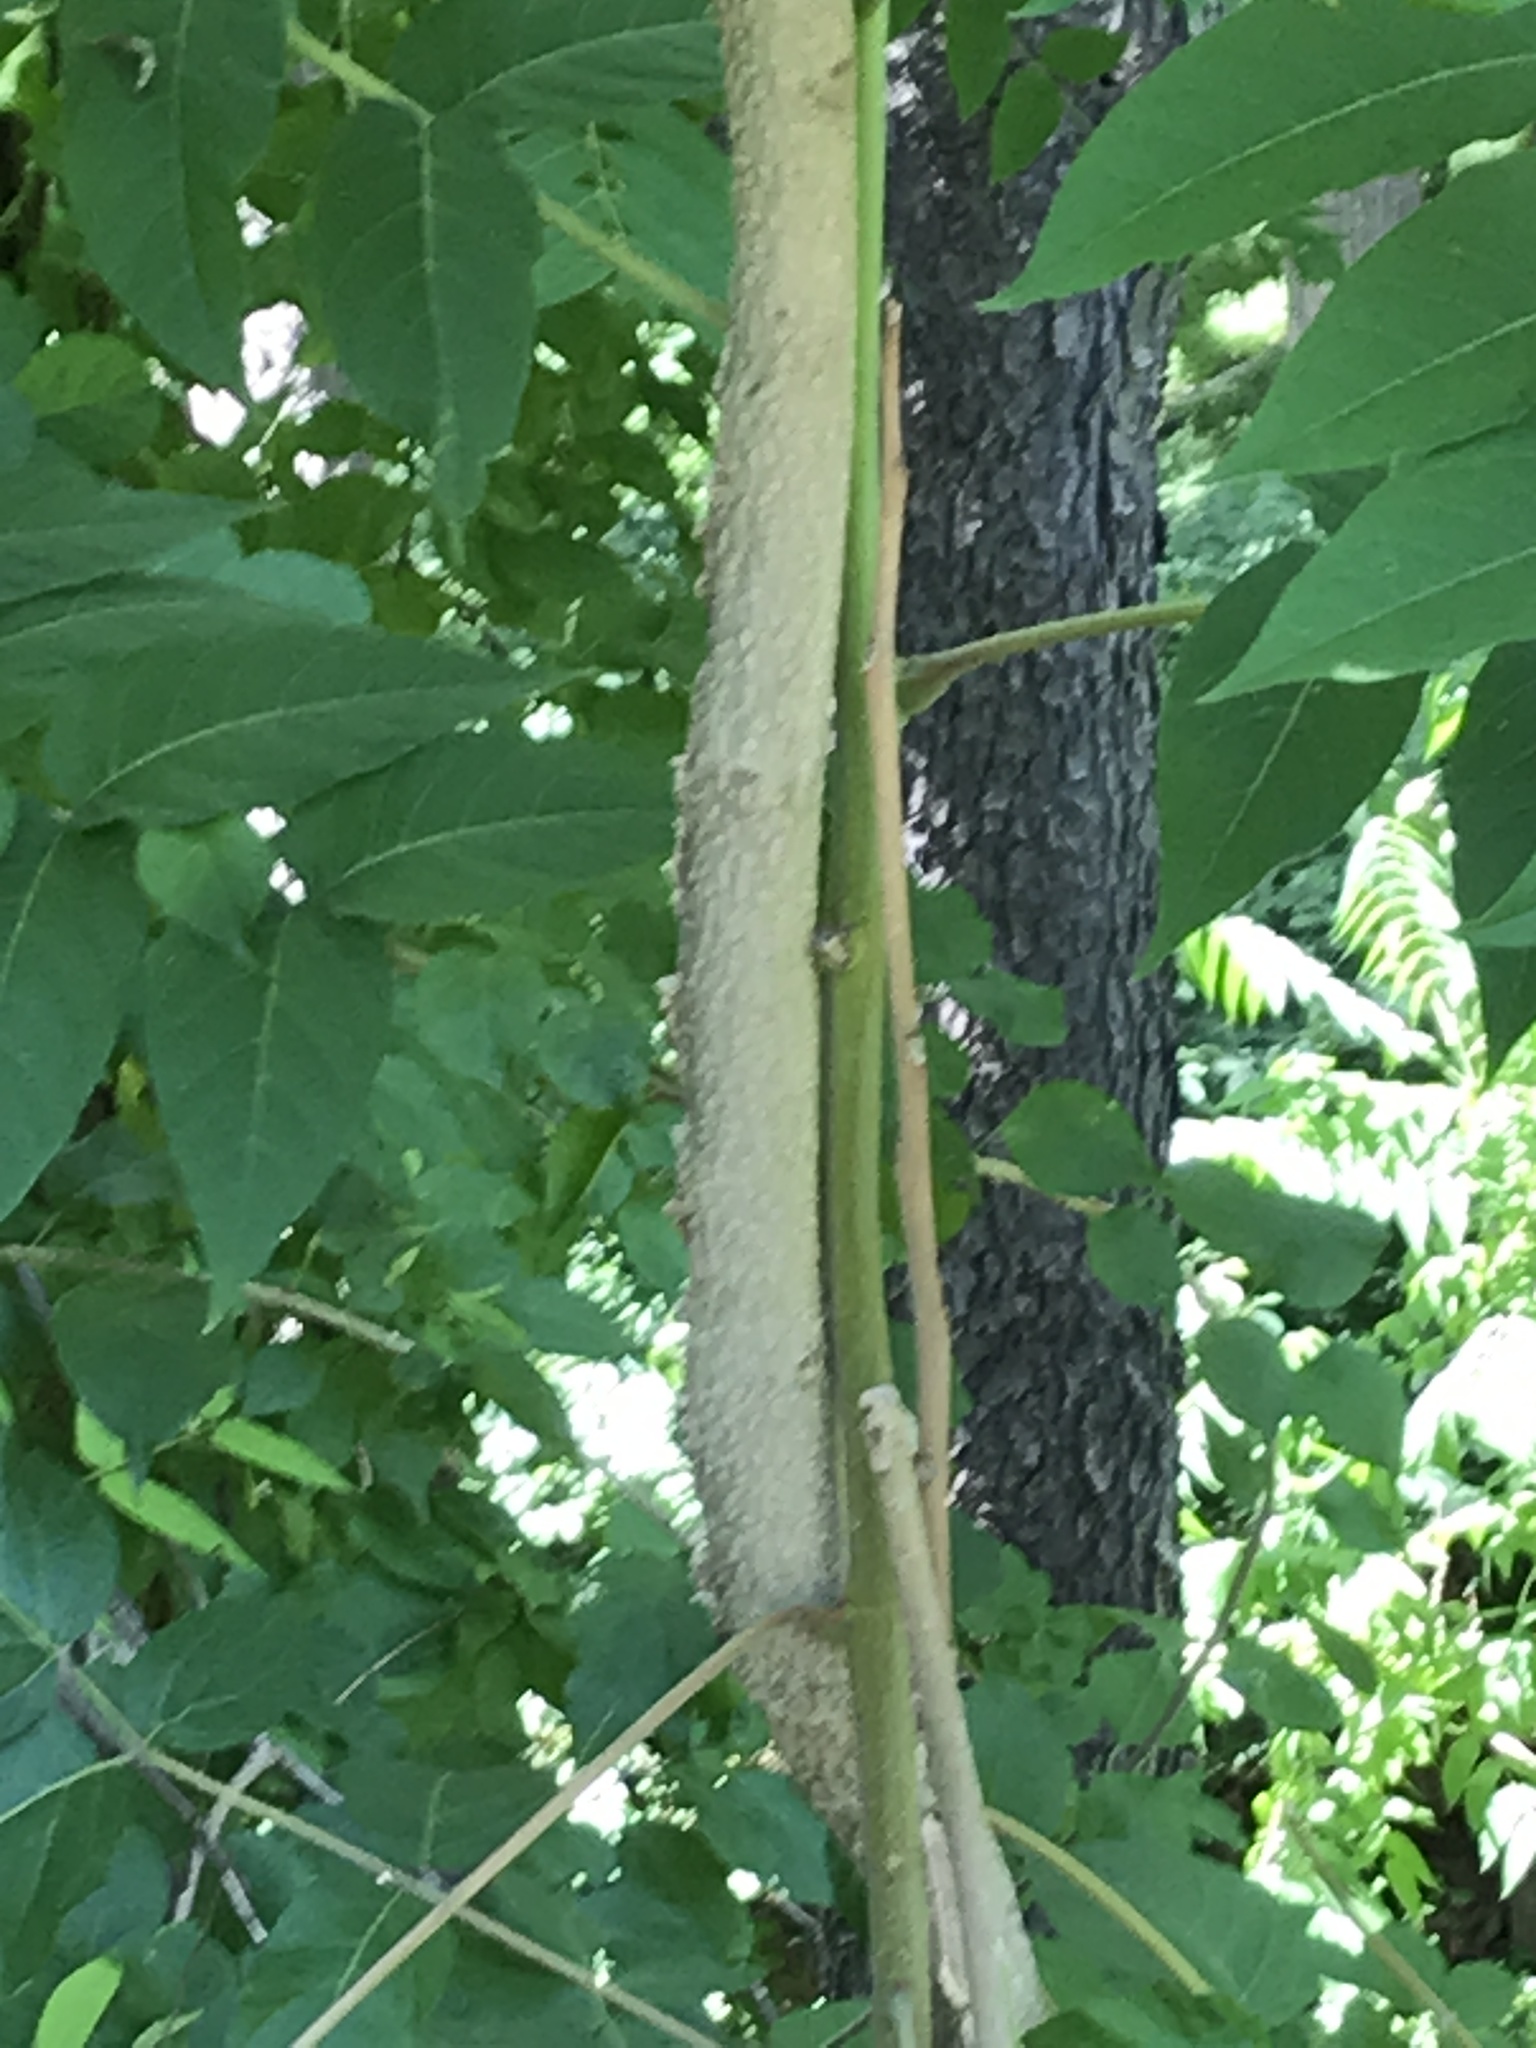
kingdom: Plantae
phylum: Tracheophyta
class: Magnoliopsida
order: Sapindales
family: Simaroubaceae
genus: Ailanthus
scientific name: Ailanthus altissima
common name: Tree-of-heaven
